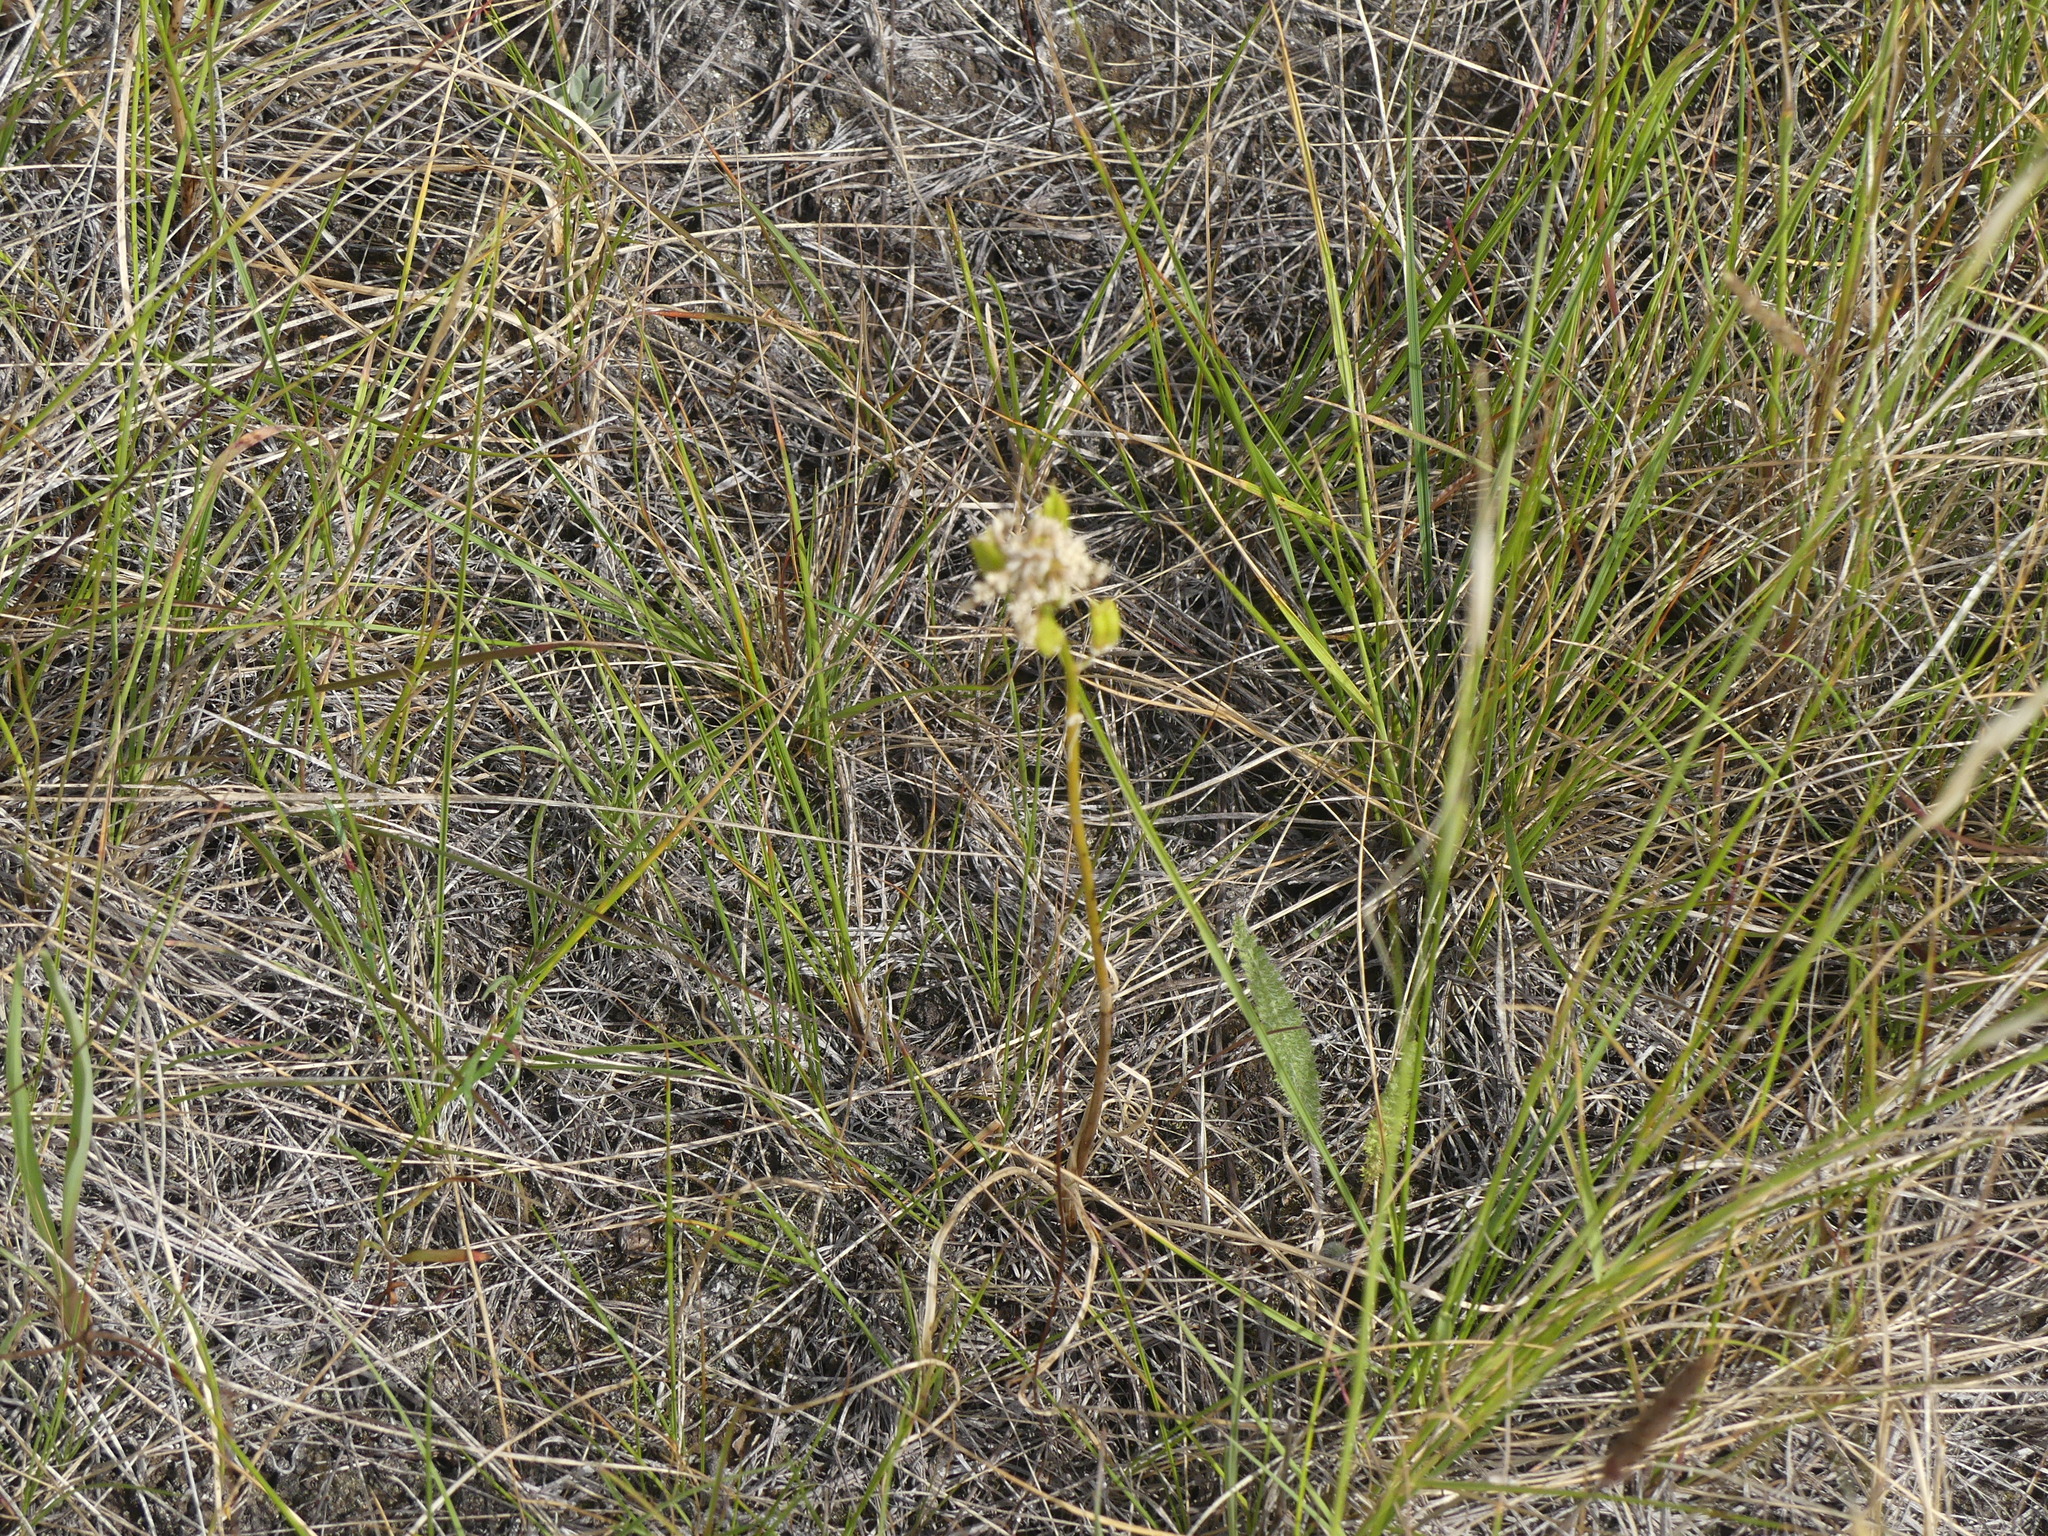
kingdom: Plantae
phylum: Tracheophyta
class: Liliopsida
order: Liliales
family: Melanthiaceae
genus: Toxicoscordion
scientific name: Toxicoscordion venenosum
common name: Meadow death camas
